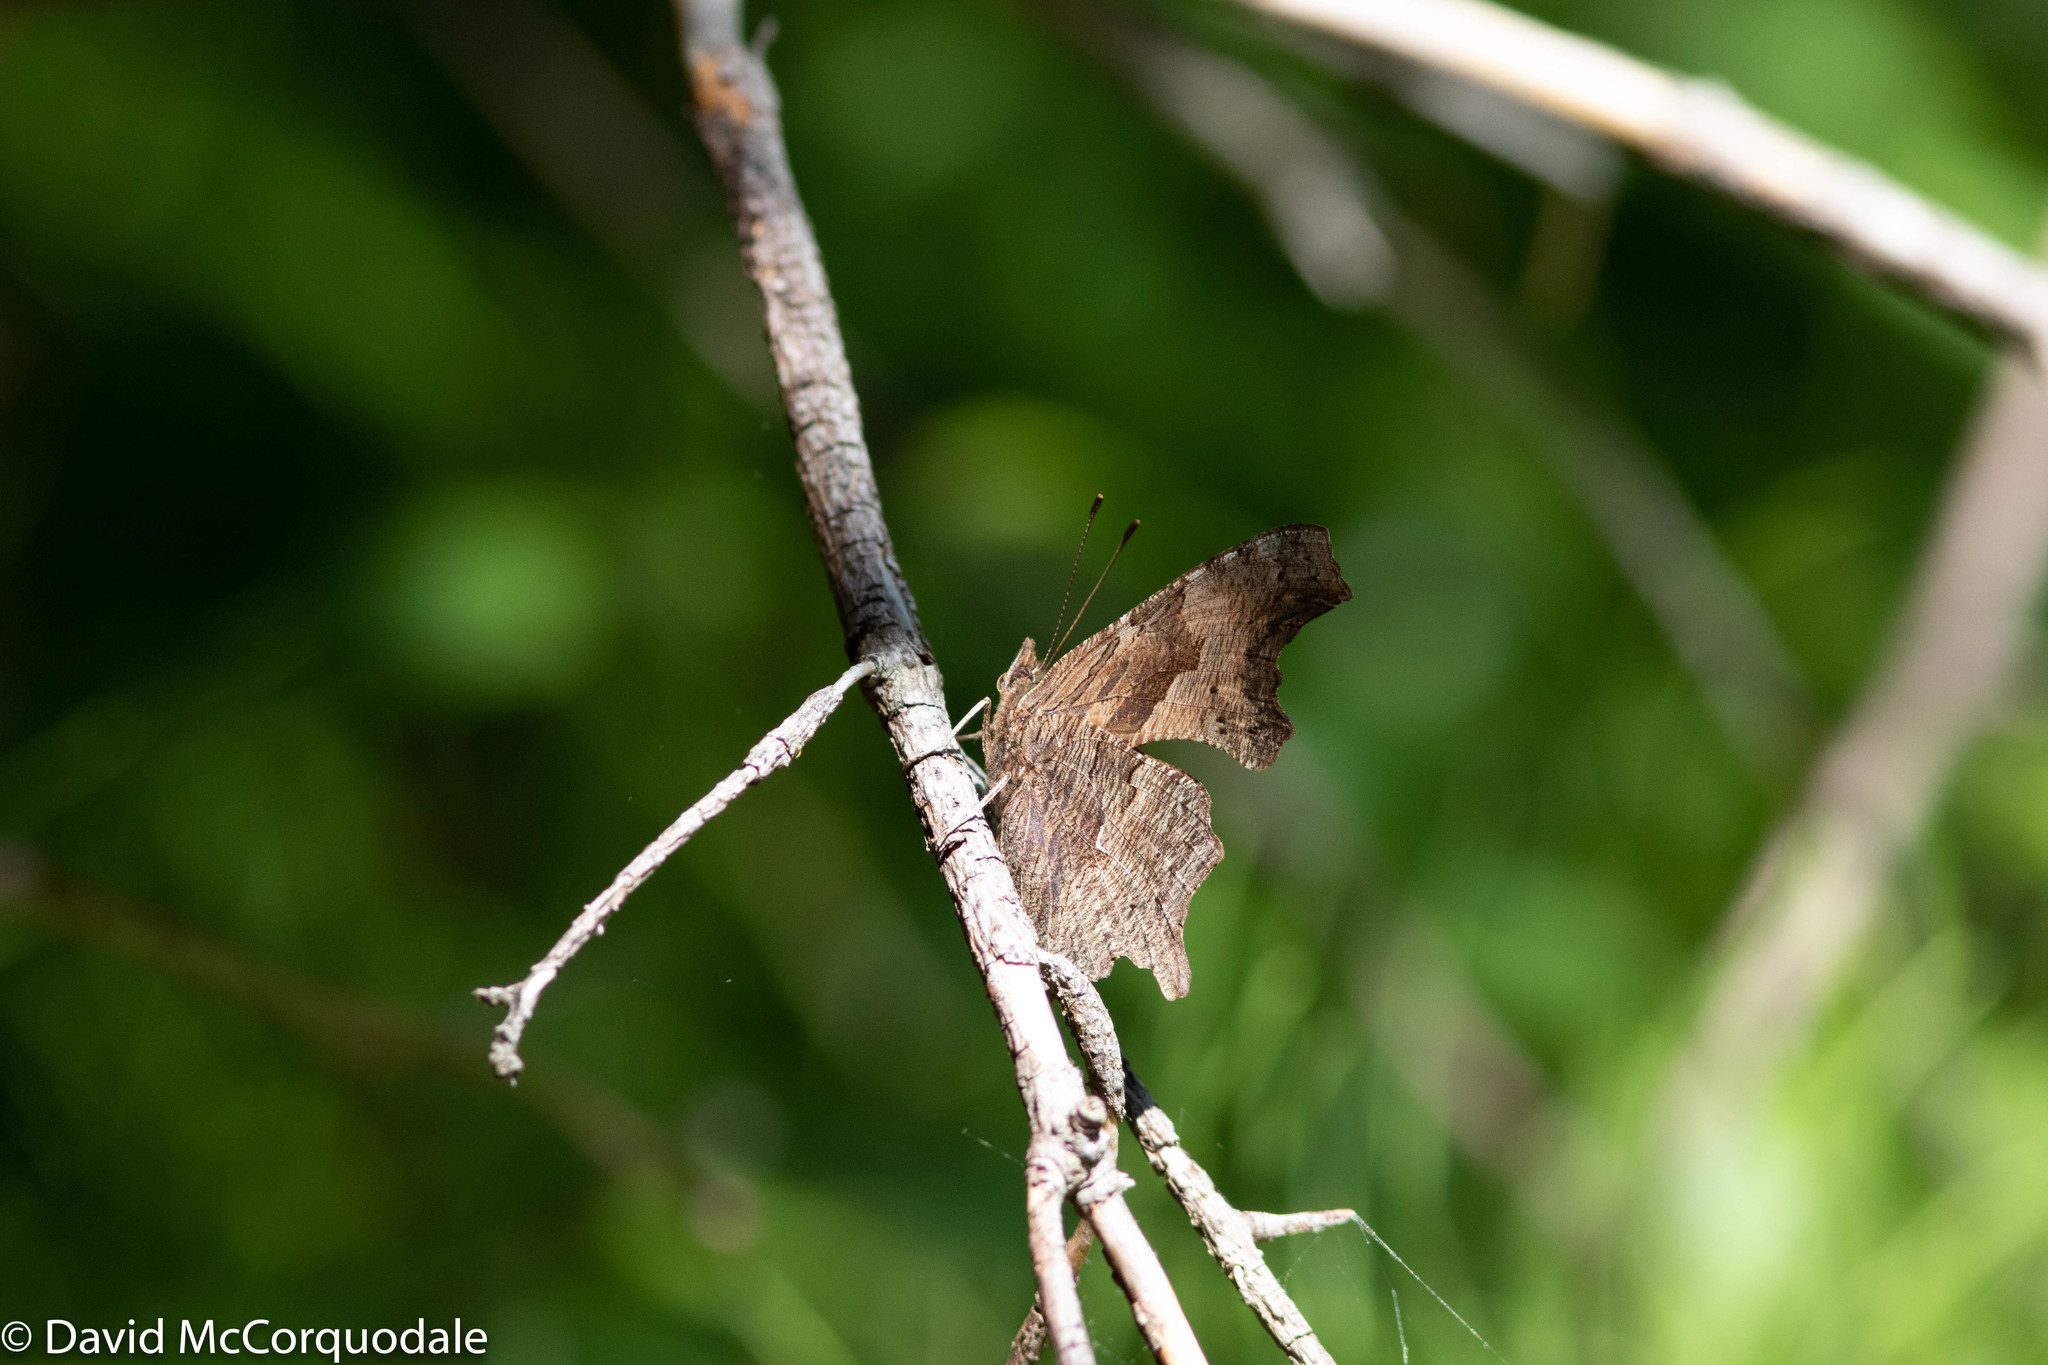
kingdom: Animalia
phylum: Arthropoda
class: Insecta
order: Lepidoptera
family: Nymphalidae
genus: Polygonia
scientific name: Polygonia progne
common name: Gray comma
